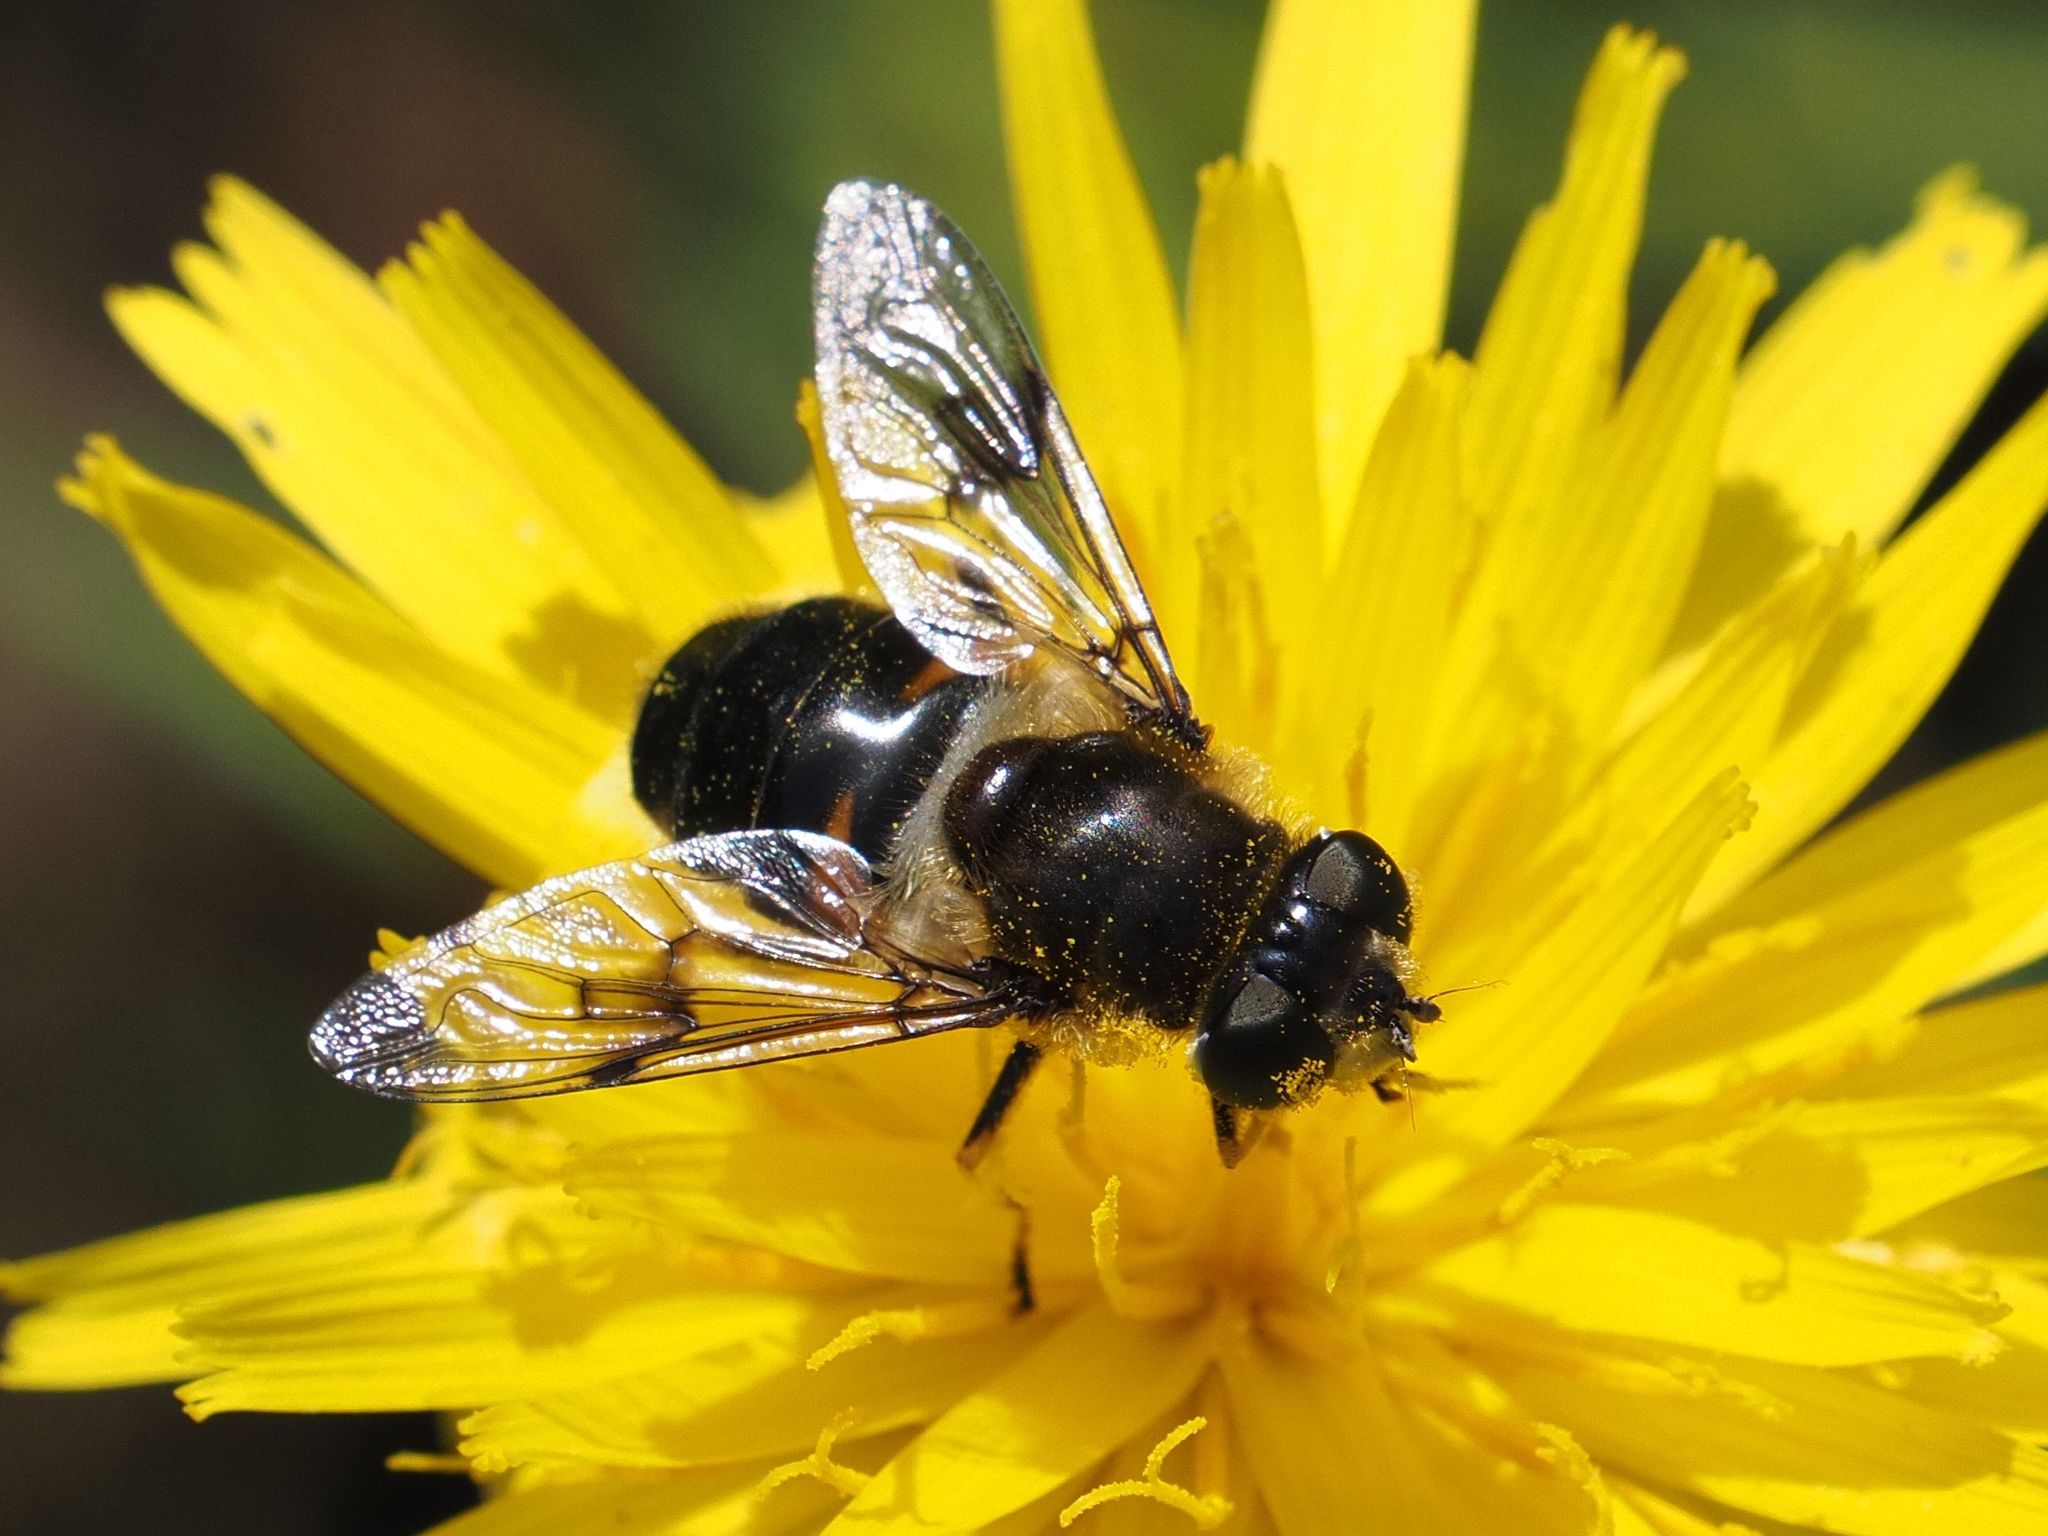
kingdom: Animalia
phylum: Arthropoda
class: Insecta
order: Diptera
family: Syrphidae
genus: Eristalis
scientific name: Eristalis rupium
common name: Hover fly
